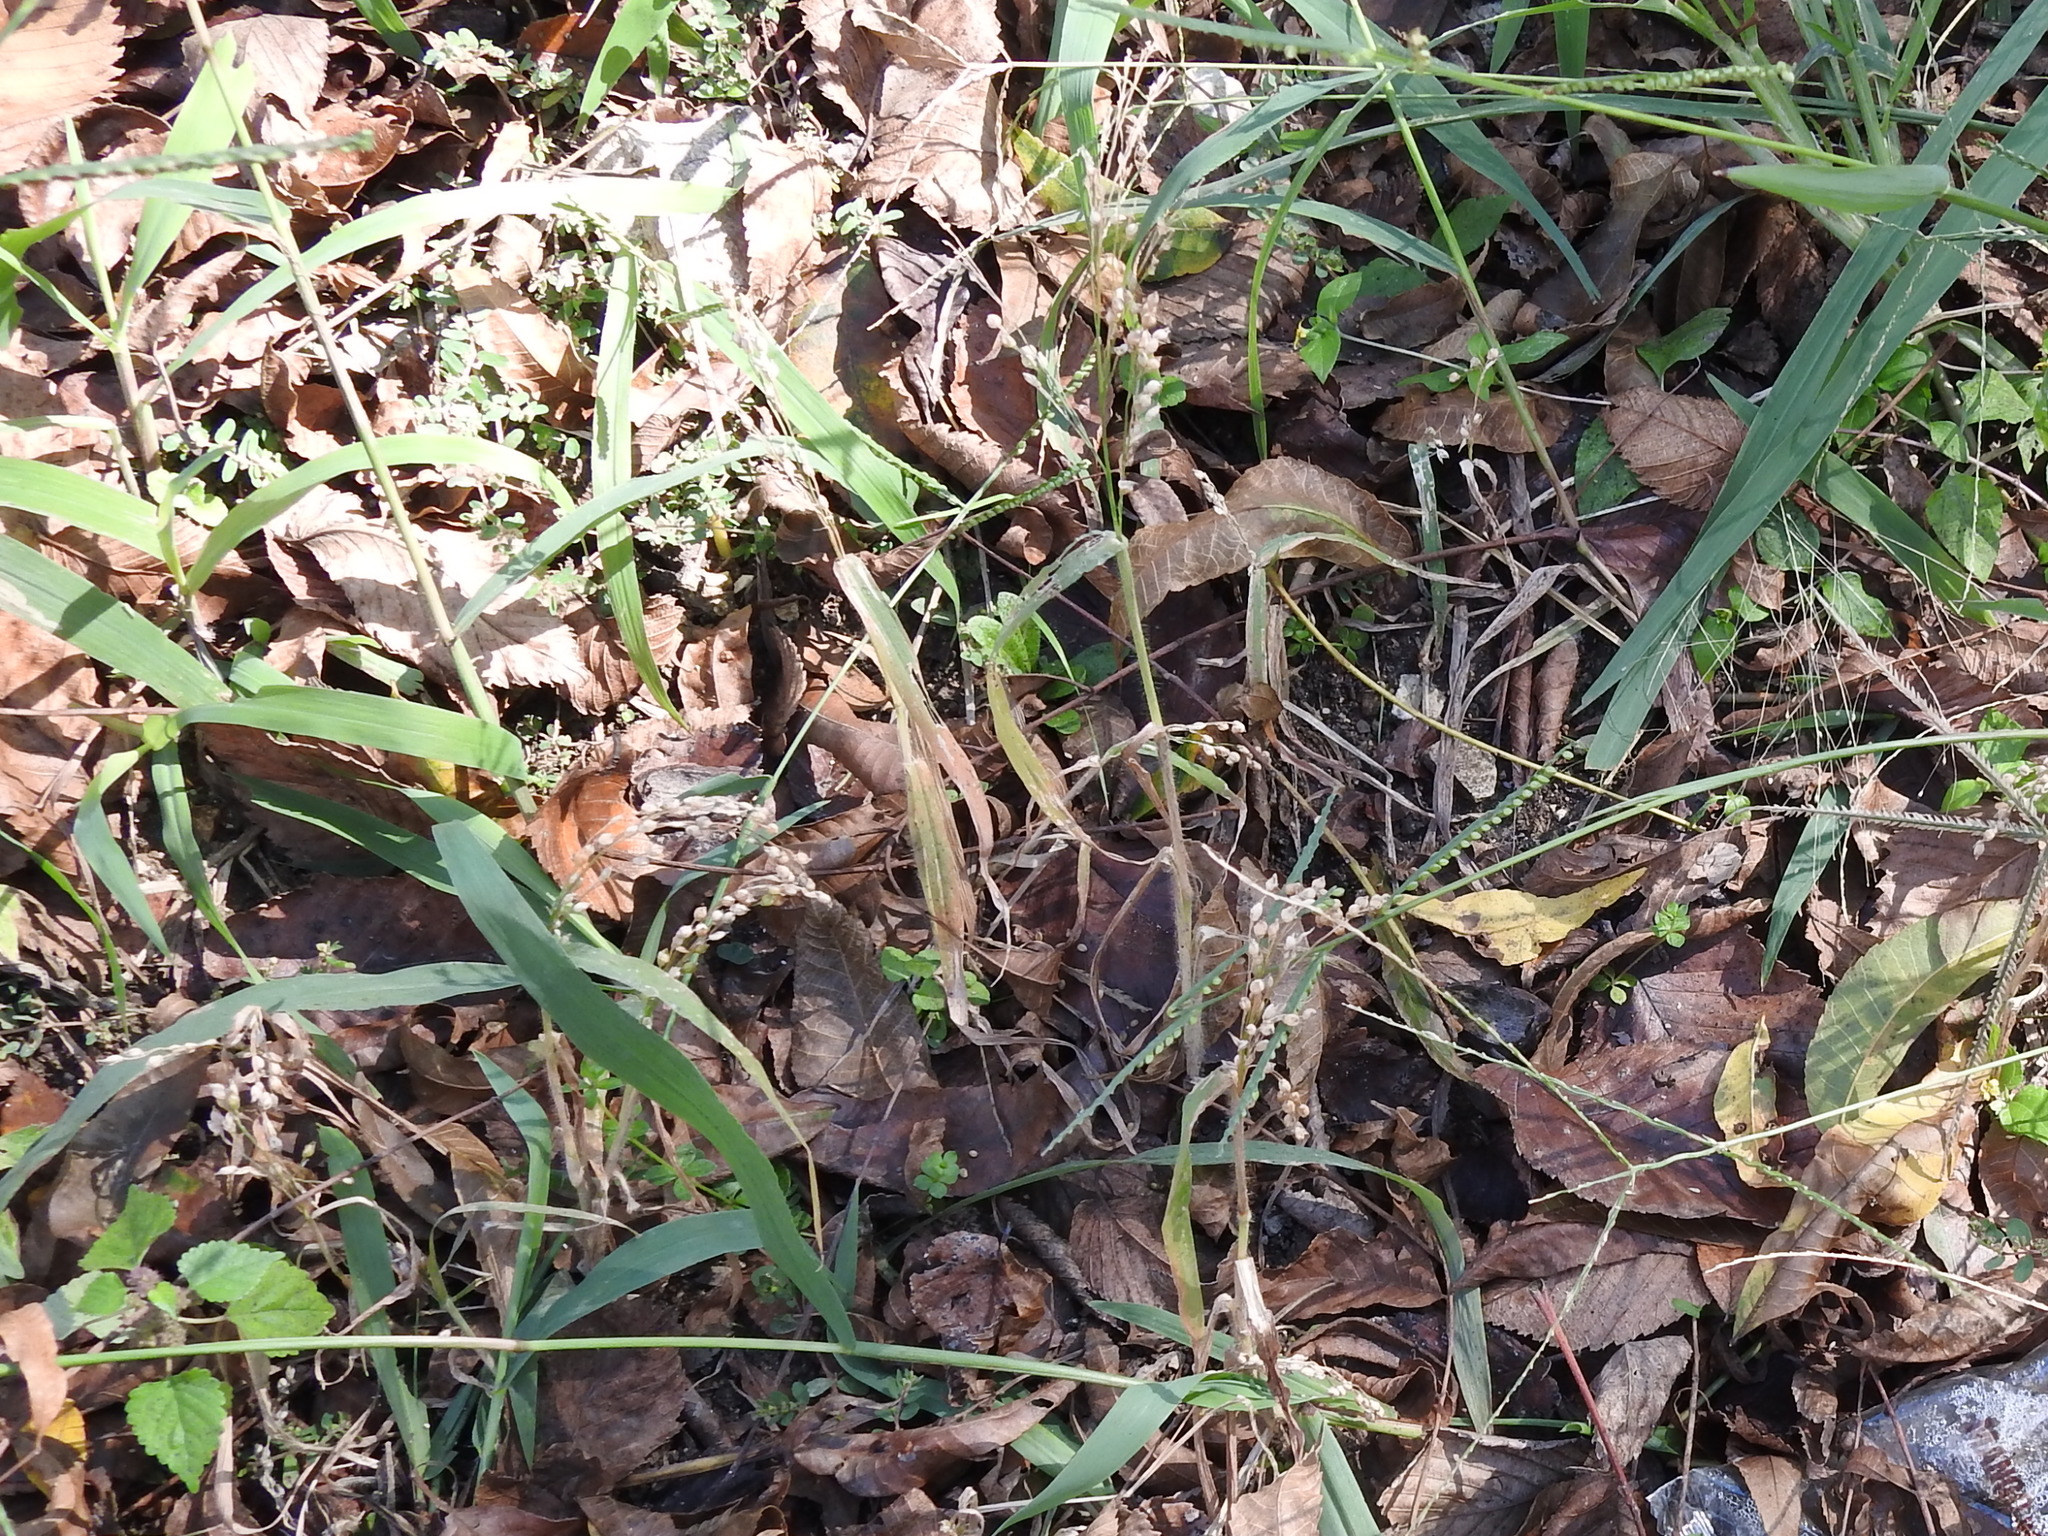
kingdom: Plantae
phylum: Tracheophyta
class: Liliopsida
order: Poales
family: Poaceae
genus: Panicum
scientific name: Panicum miliaceum
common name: Common millet
